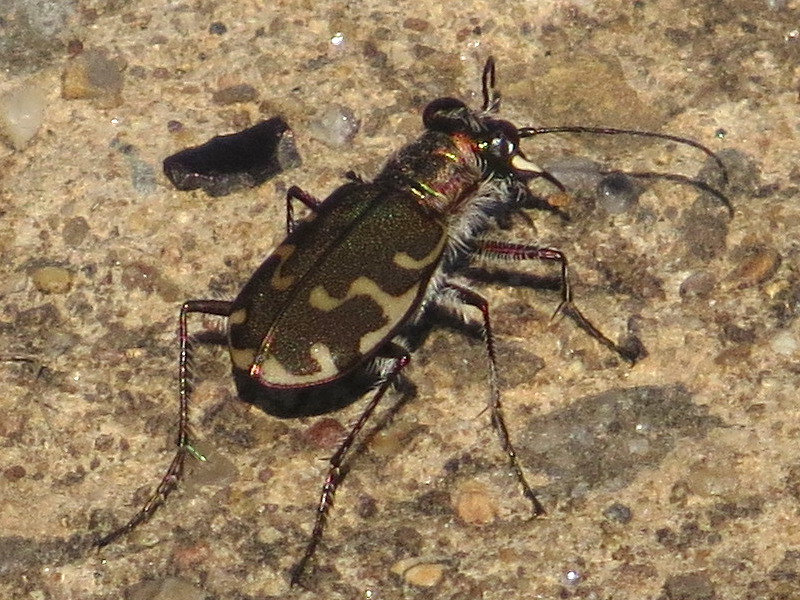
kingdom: Animalia
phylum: Arthropoda
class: Insecta
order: Coleoptera
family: Carabidae
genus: Cicindela
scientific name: Cicindela repanda
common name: Bronzed tiger beetle
